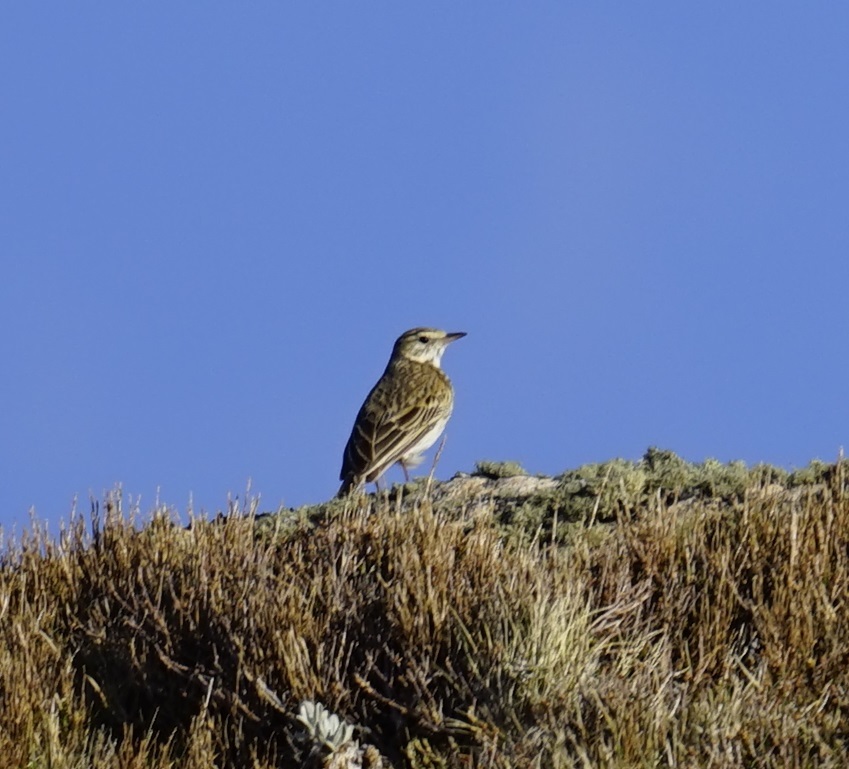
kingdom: Animalia
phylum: Chordata
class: Aves
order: Passeriformes
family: Motacillidae
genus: Anthus
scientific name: Anthus australis
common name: Australian pipit
